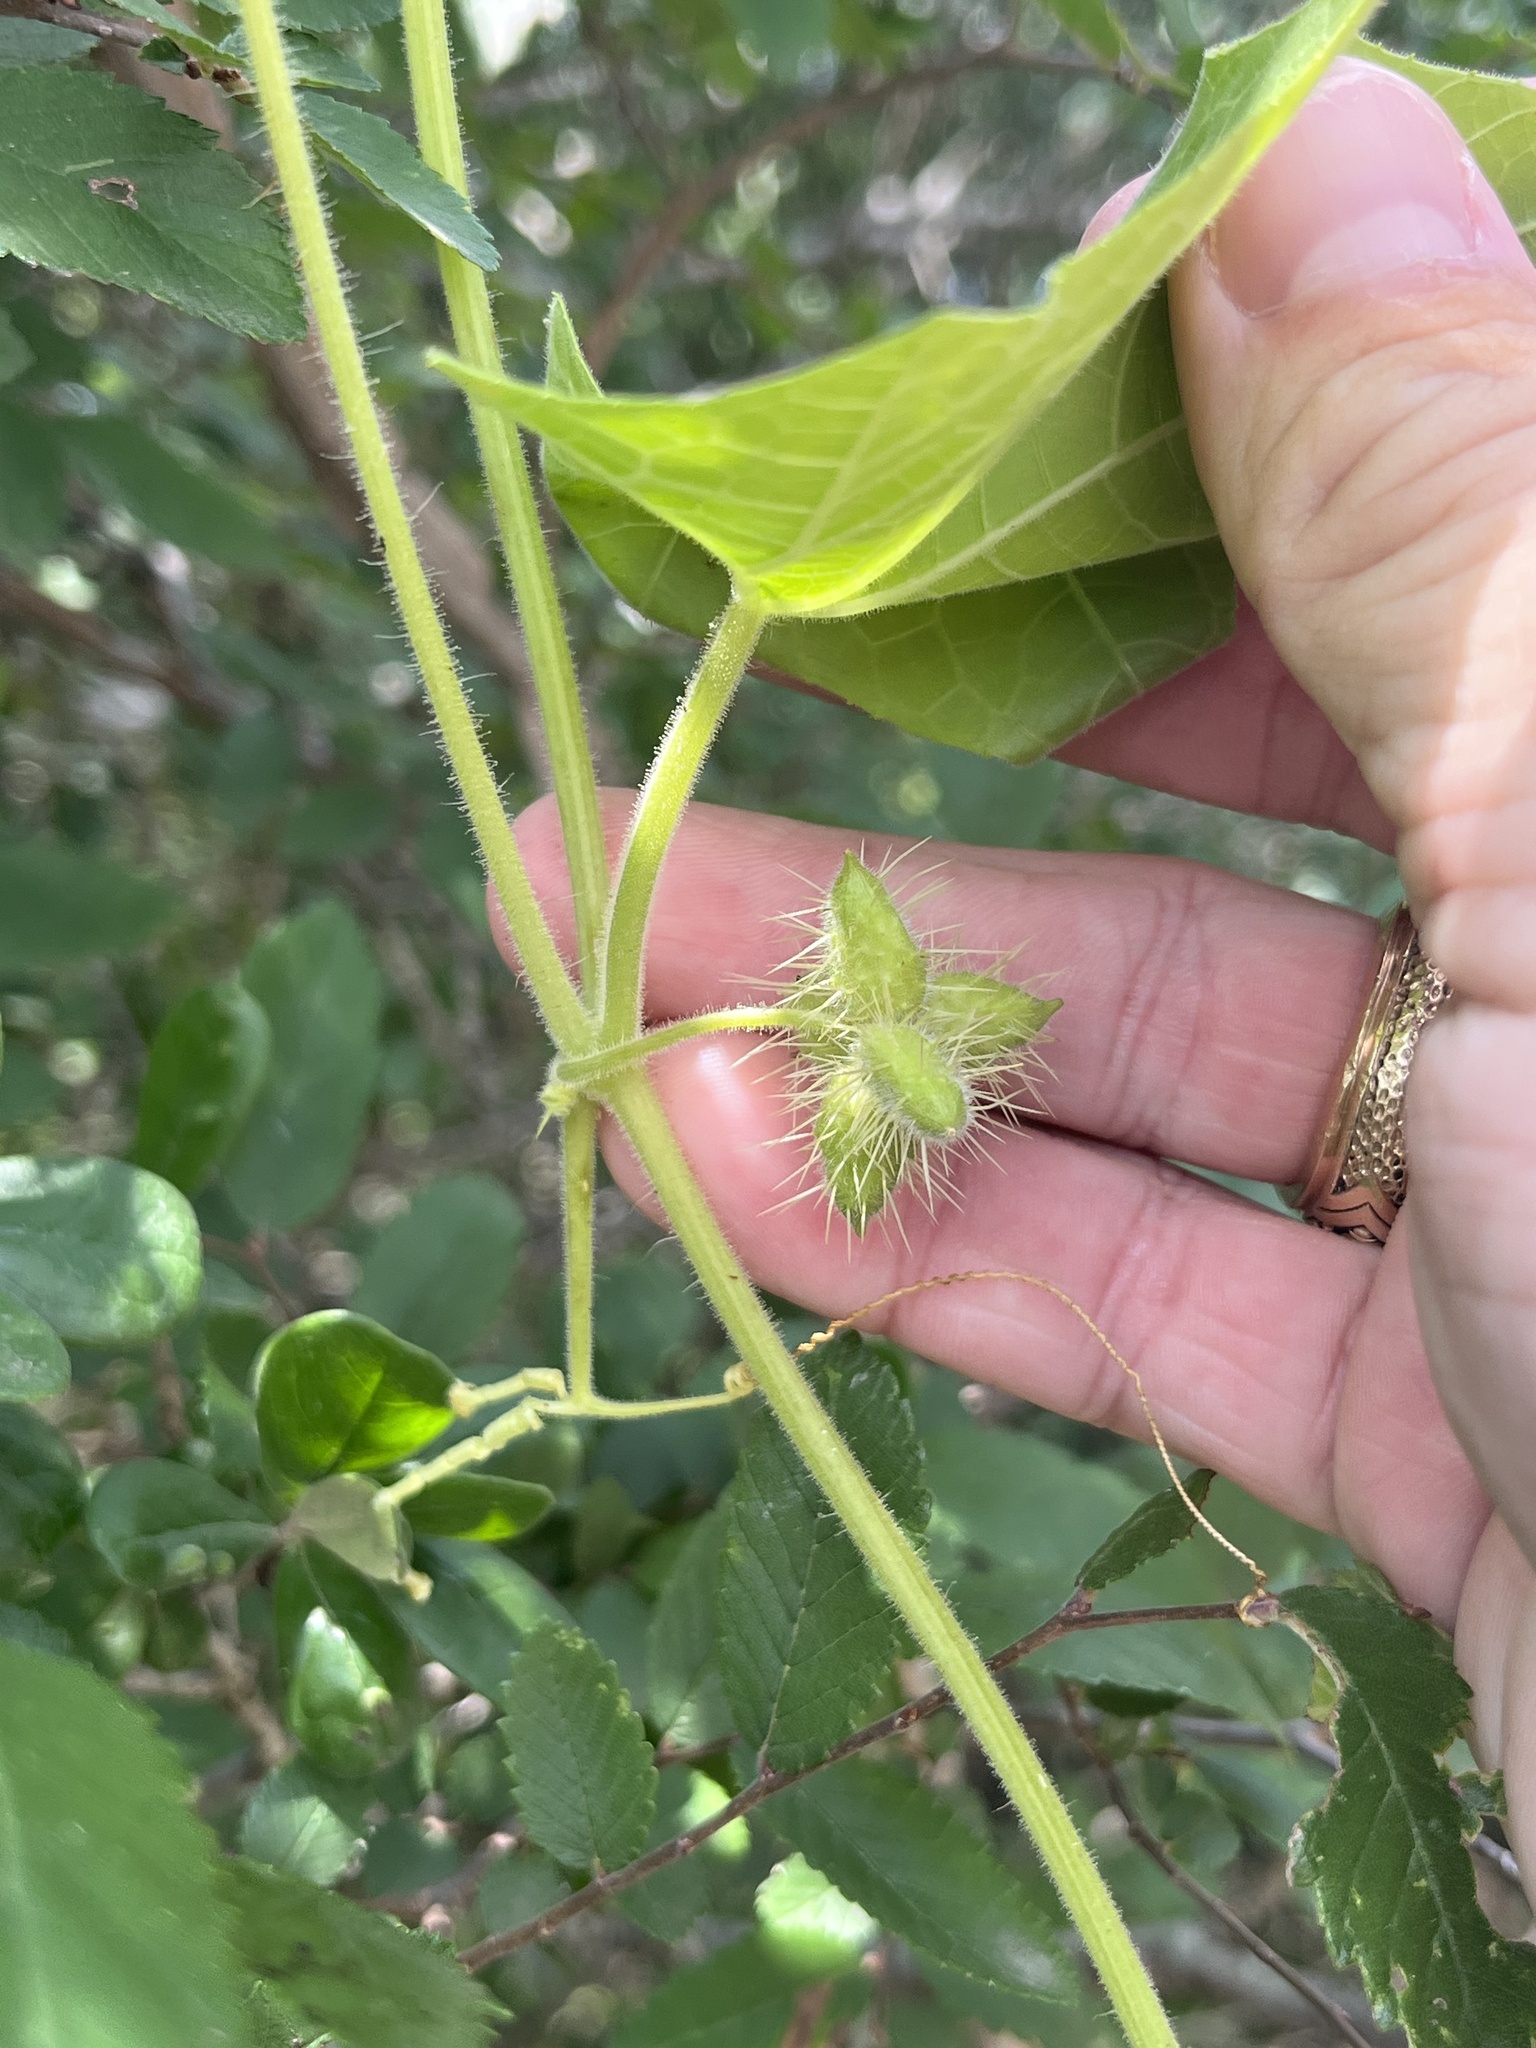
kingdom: Plantae
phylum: Tracheophyta
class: Magnoliopsida
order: Cucurbitales
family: Cucurbitaceae
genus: Sicyos
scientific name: Sicyos angulatus
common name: Angled burr cucumber
